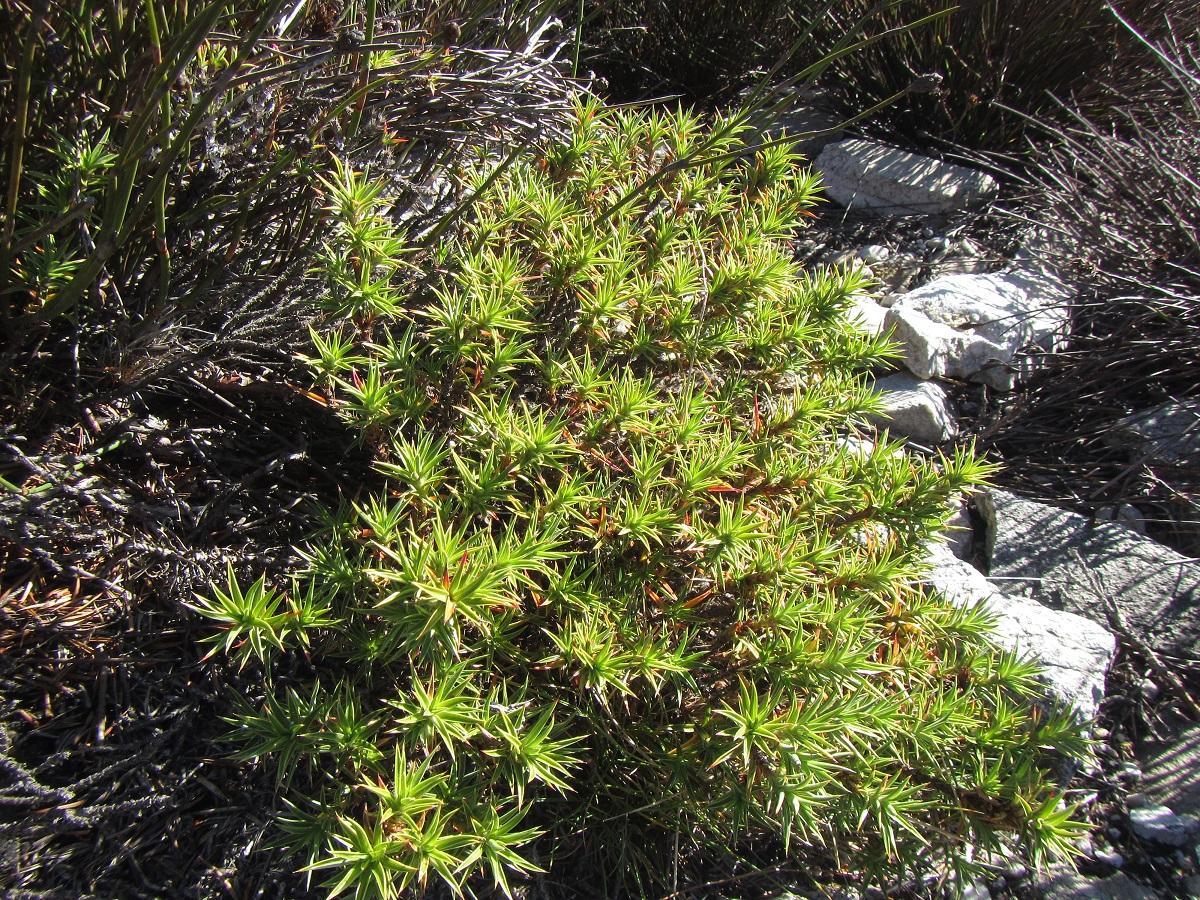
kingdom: Plantae
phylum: Tracheophyta
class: Magnoliopsida
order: Rosales
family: Rosaceae
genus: Cliffortia
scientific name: Cliffortia dregeana
